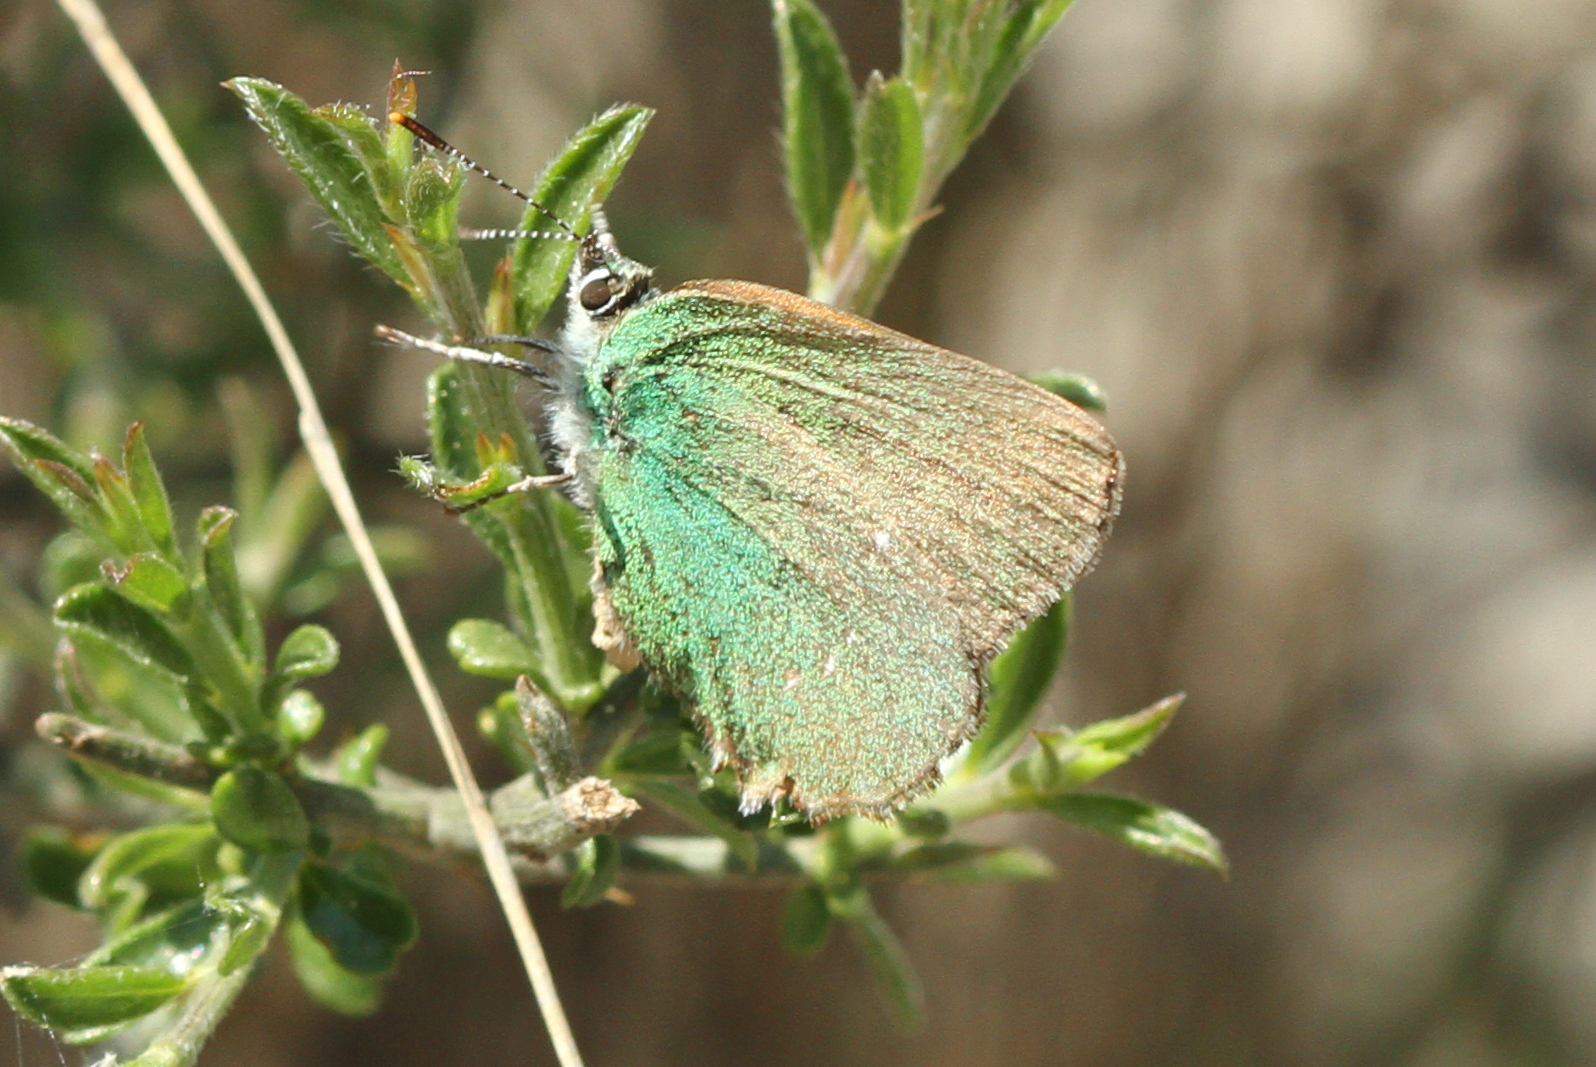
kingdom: Animalia
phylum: Arthropoda
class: Insecta
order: Lepidoptera
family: Lycaenidae
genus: Callophrys
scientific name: Callophrys rubi
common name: Green hairstreak
